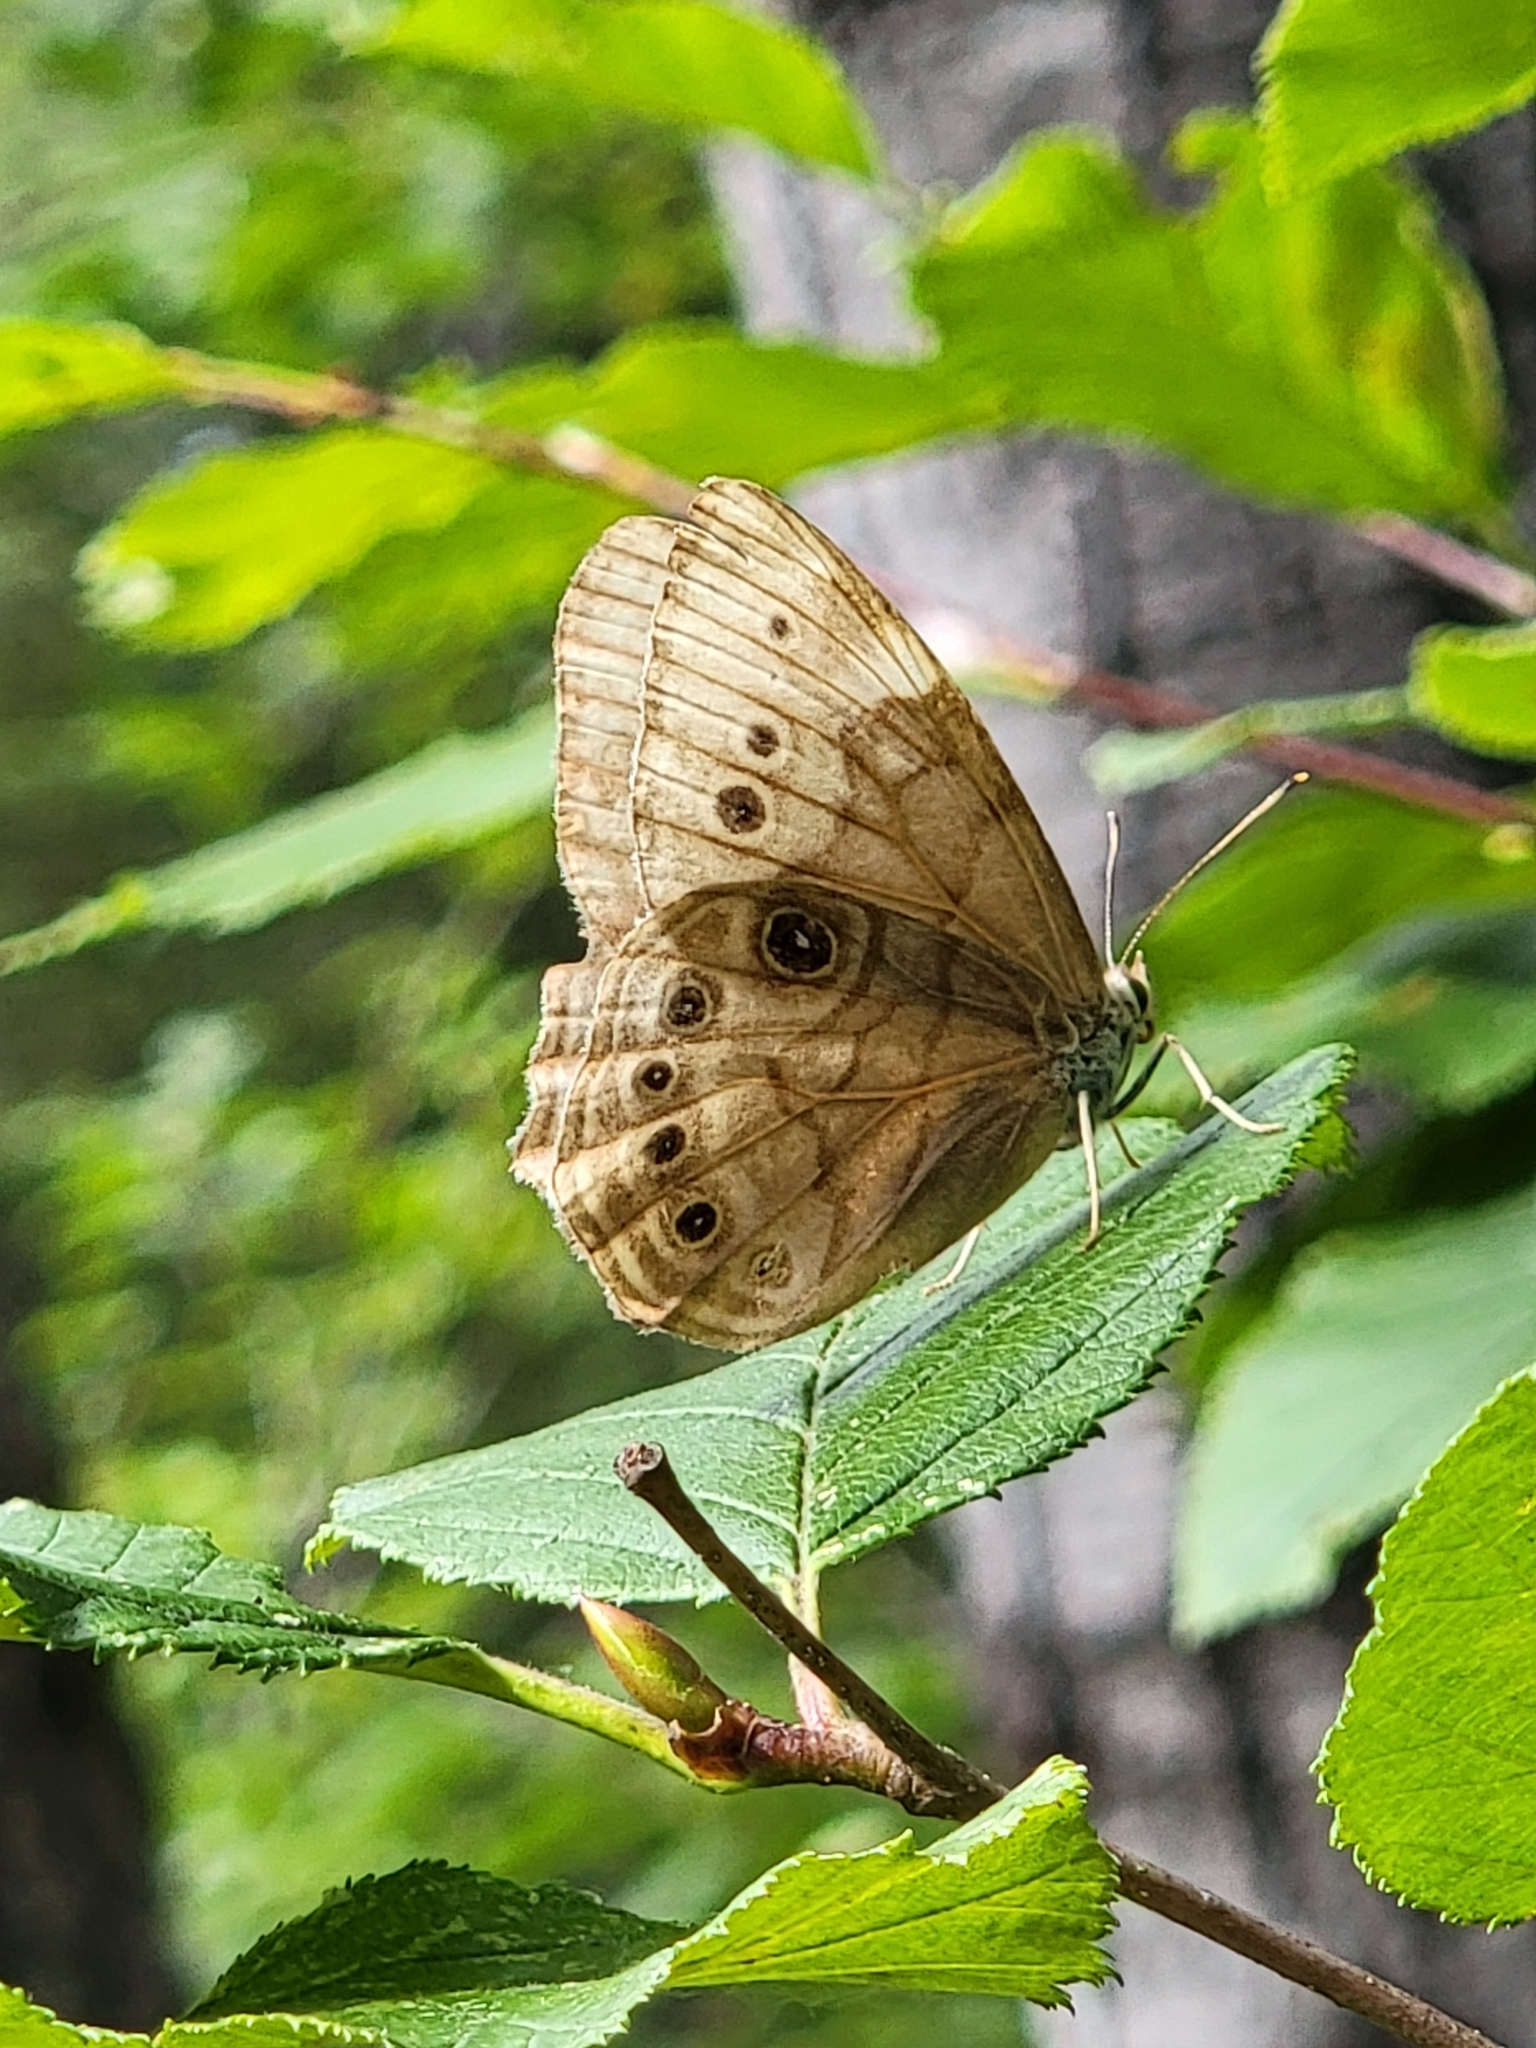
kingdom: Animalia
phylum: Arthropoda
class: Insecta
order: Lepidoptera
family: Nymphalidae
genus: Lethe
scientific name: Lethe anthedon
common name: Northern pearly-eye
